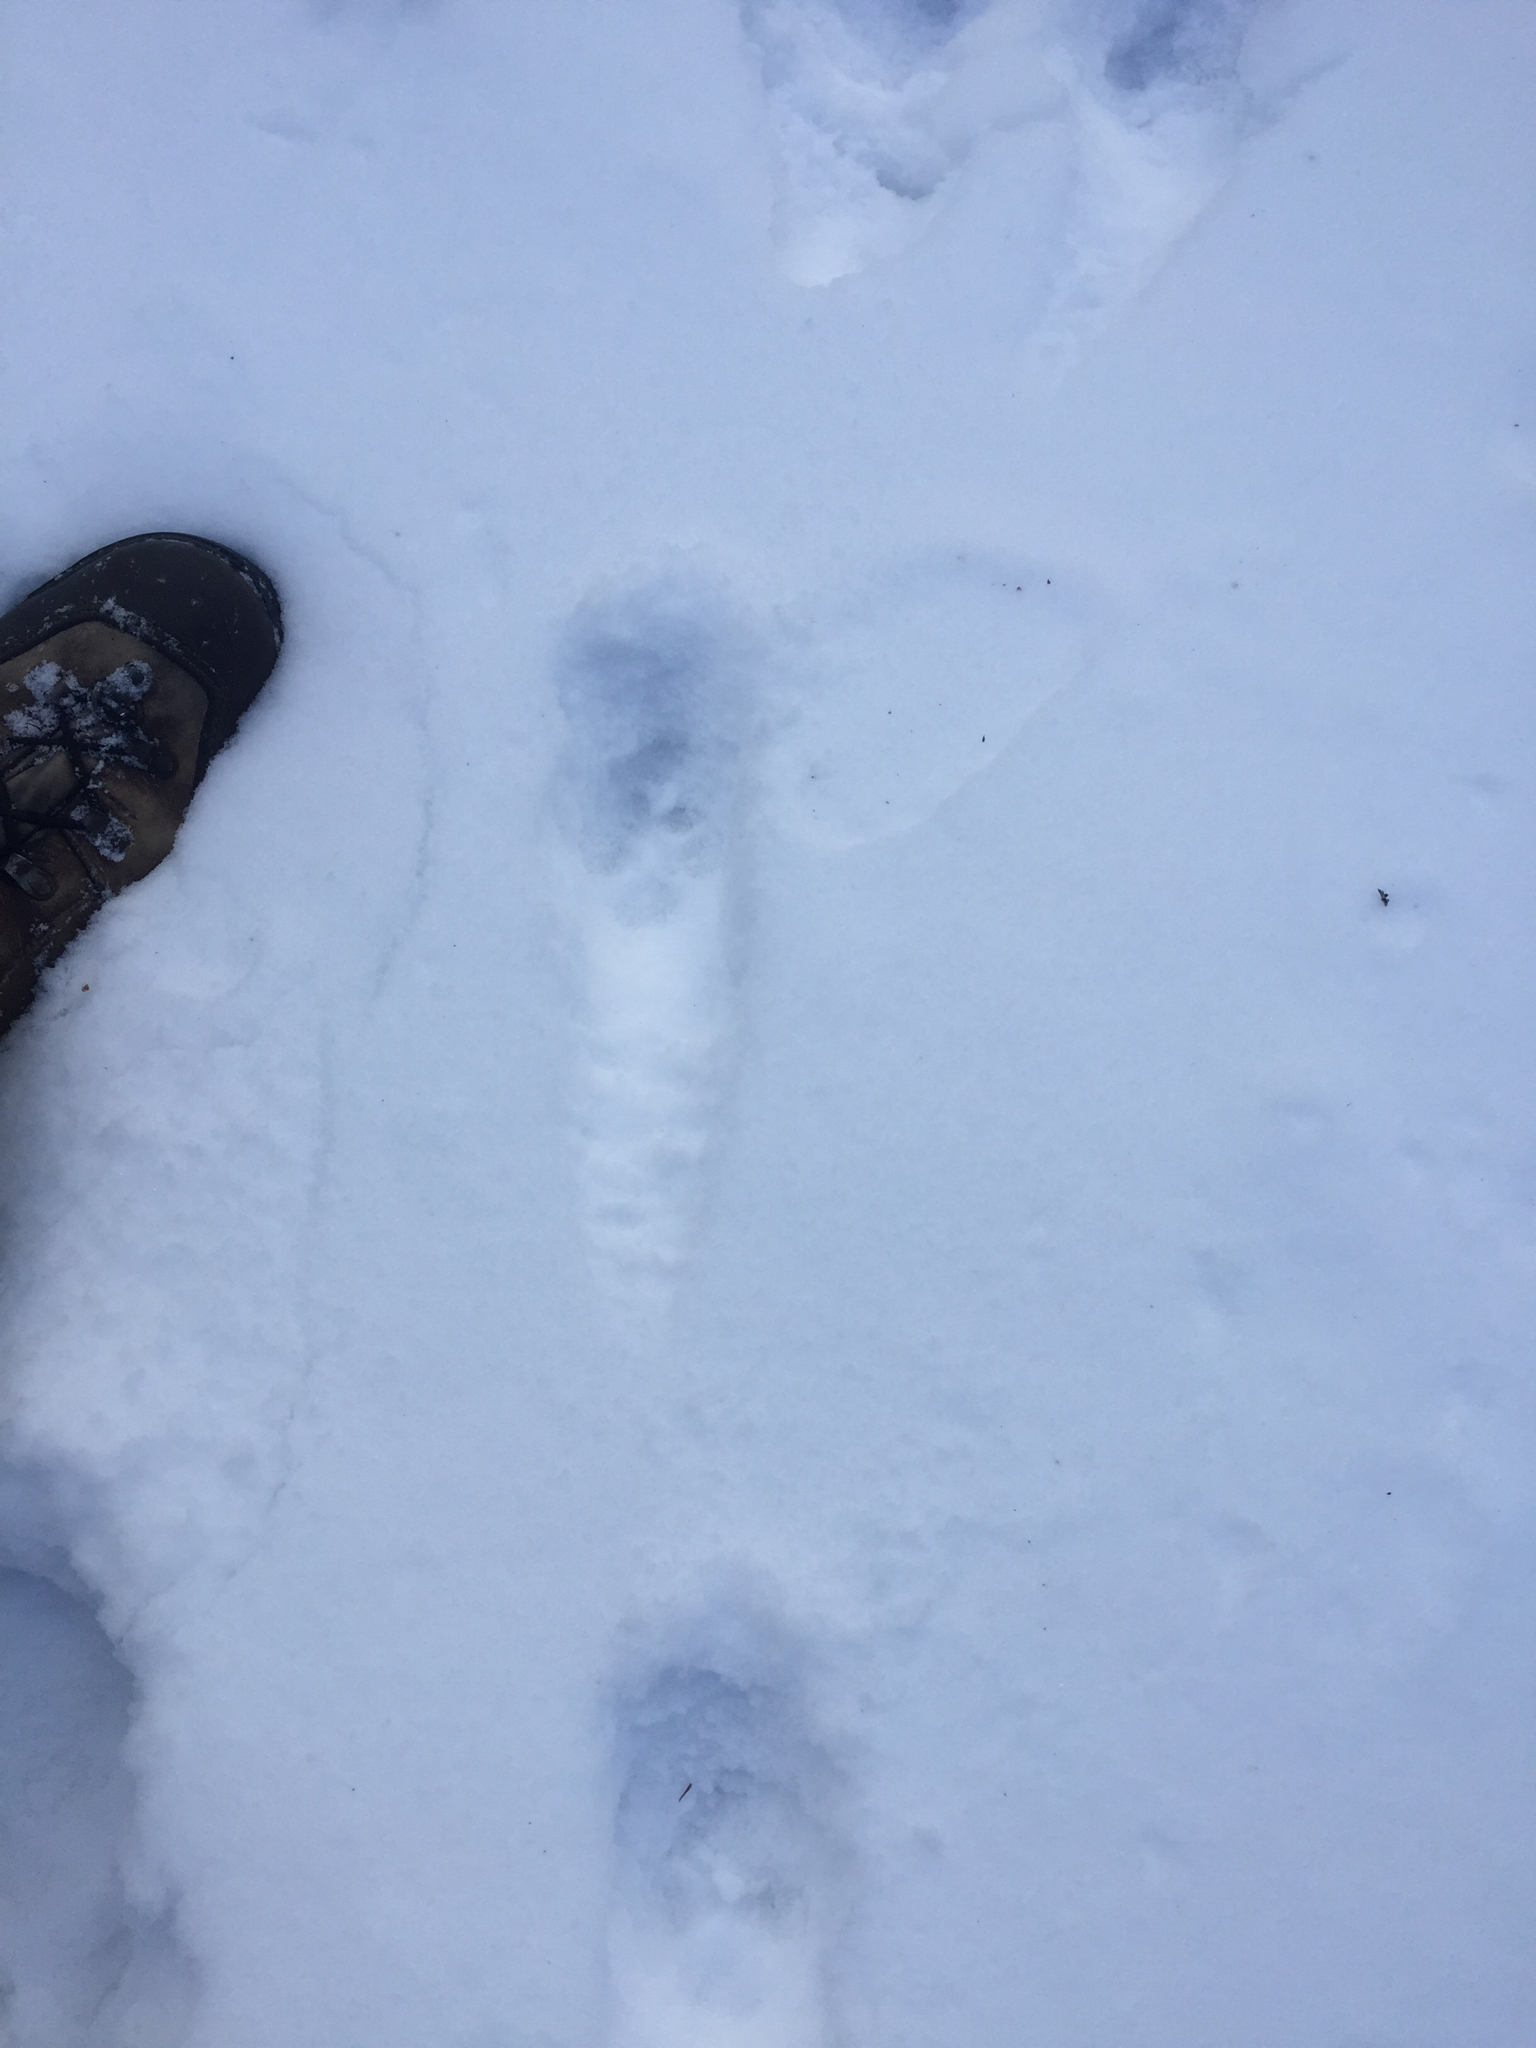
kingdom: Animalia
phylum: Chordata
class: Mammalia
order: Carnivora
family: Canidae
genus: Canis
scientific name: Canis latrans
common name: Coyote
